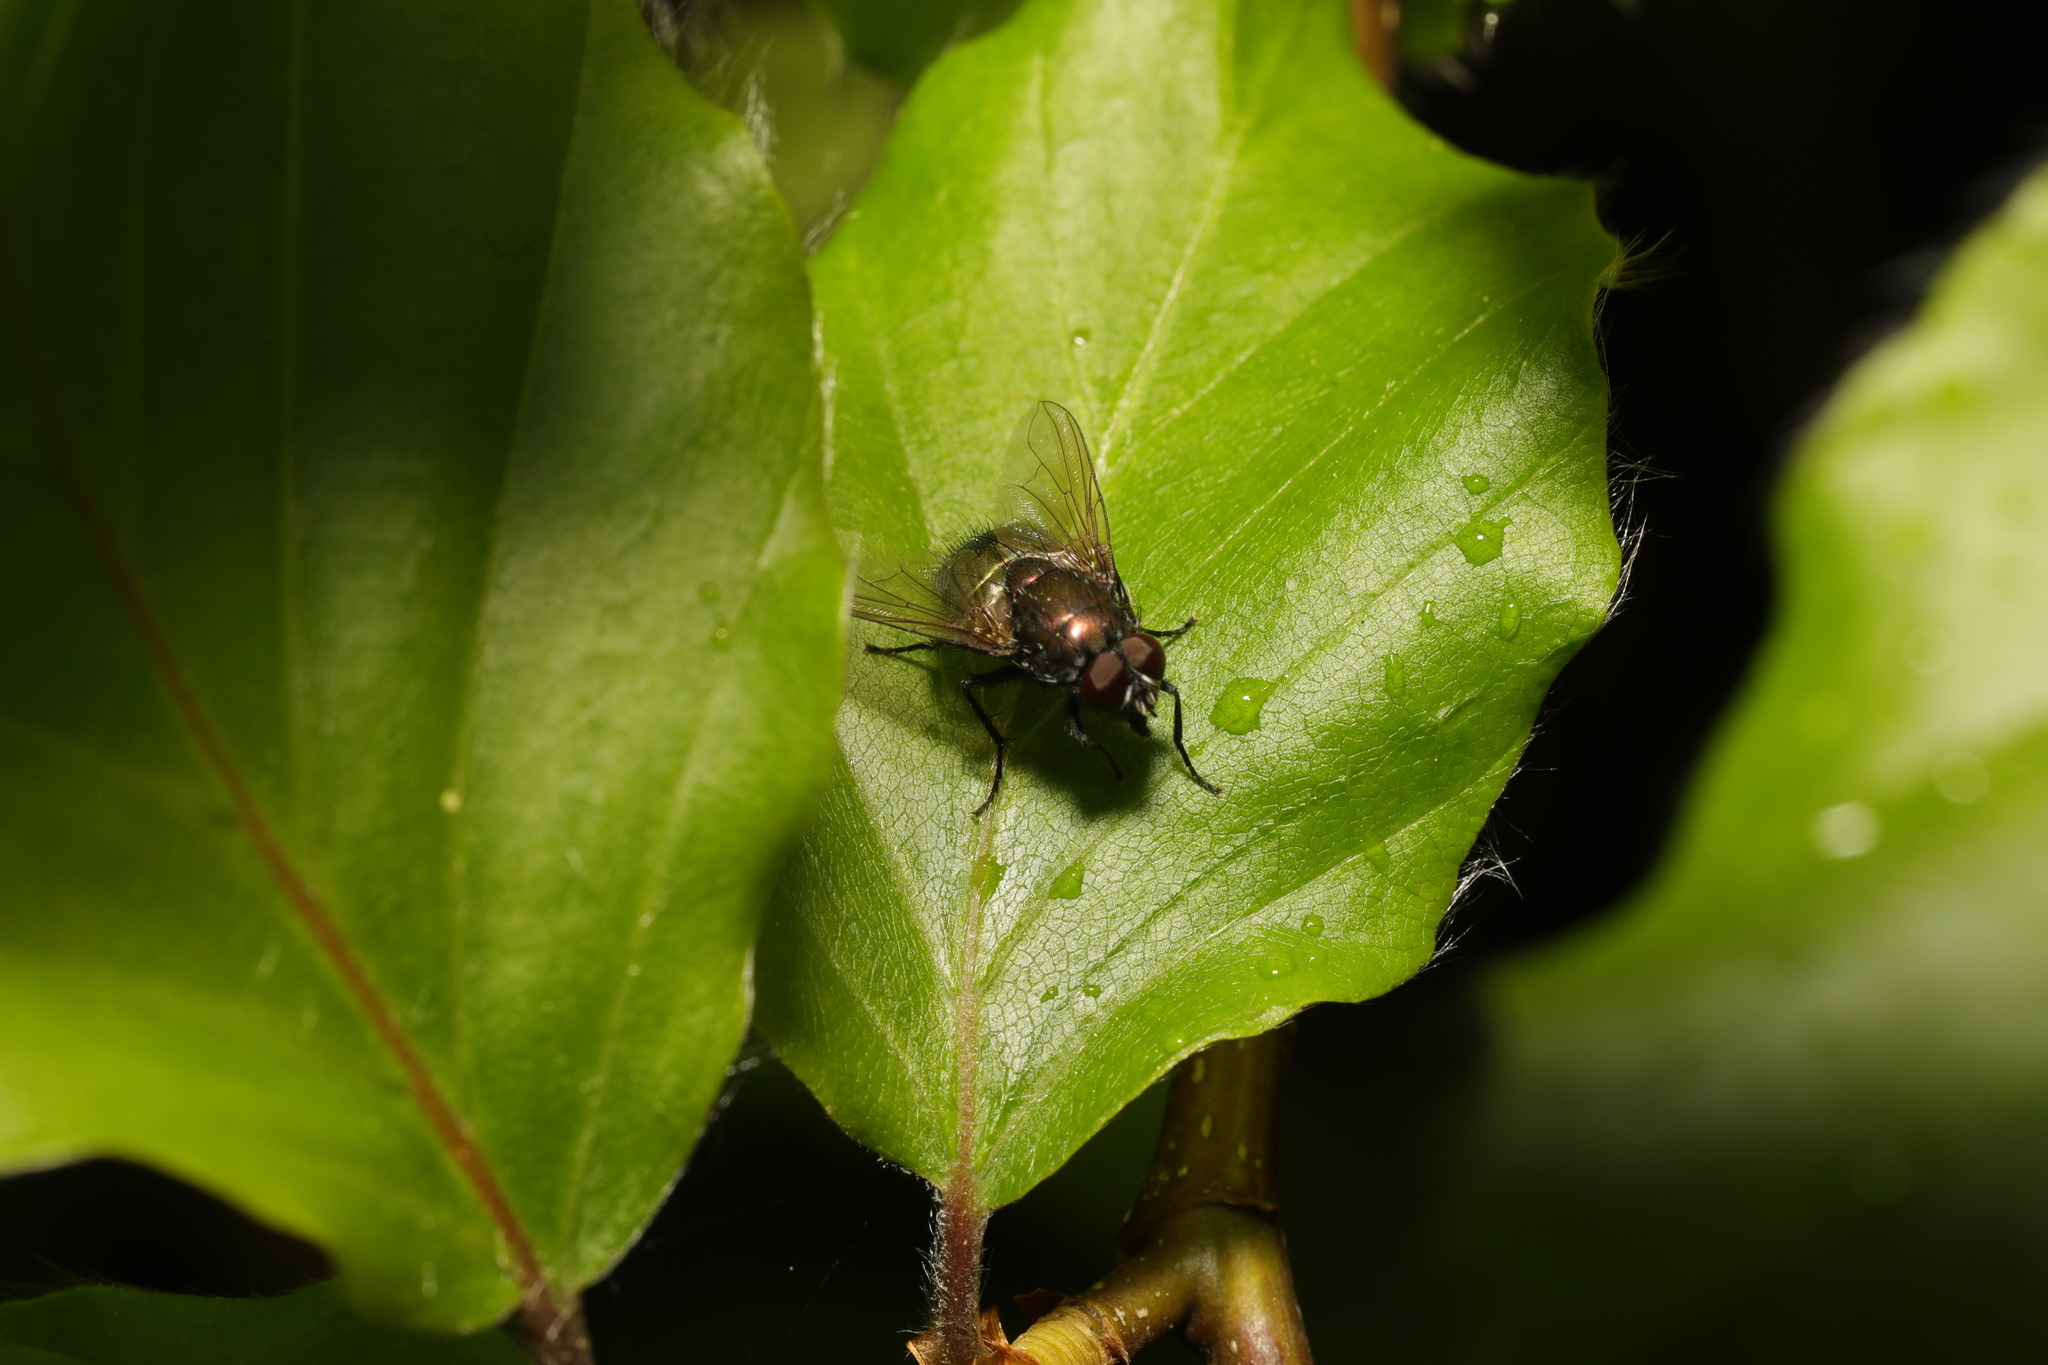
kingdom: Animalia
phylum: Arthropoda
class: Insecta
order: Diptera
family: Muscidae
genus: Dasyphora
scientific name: Dasyphora cyanella
